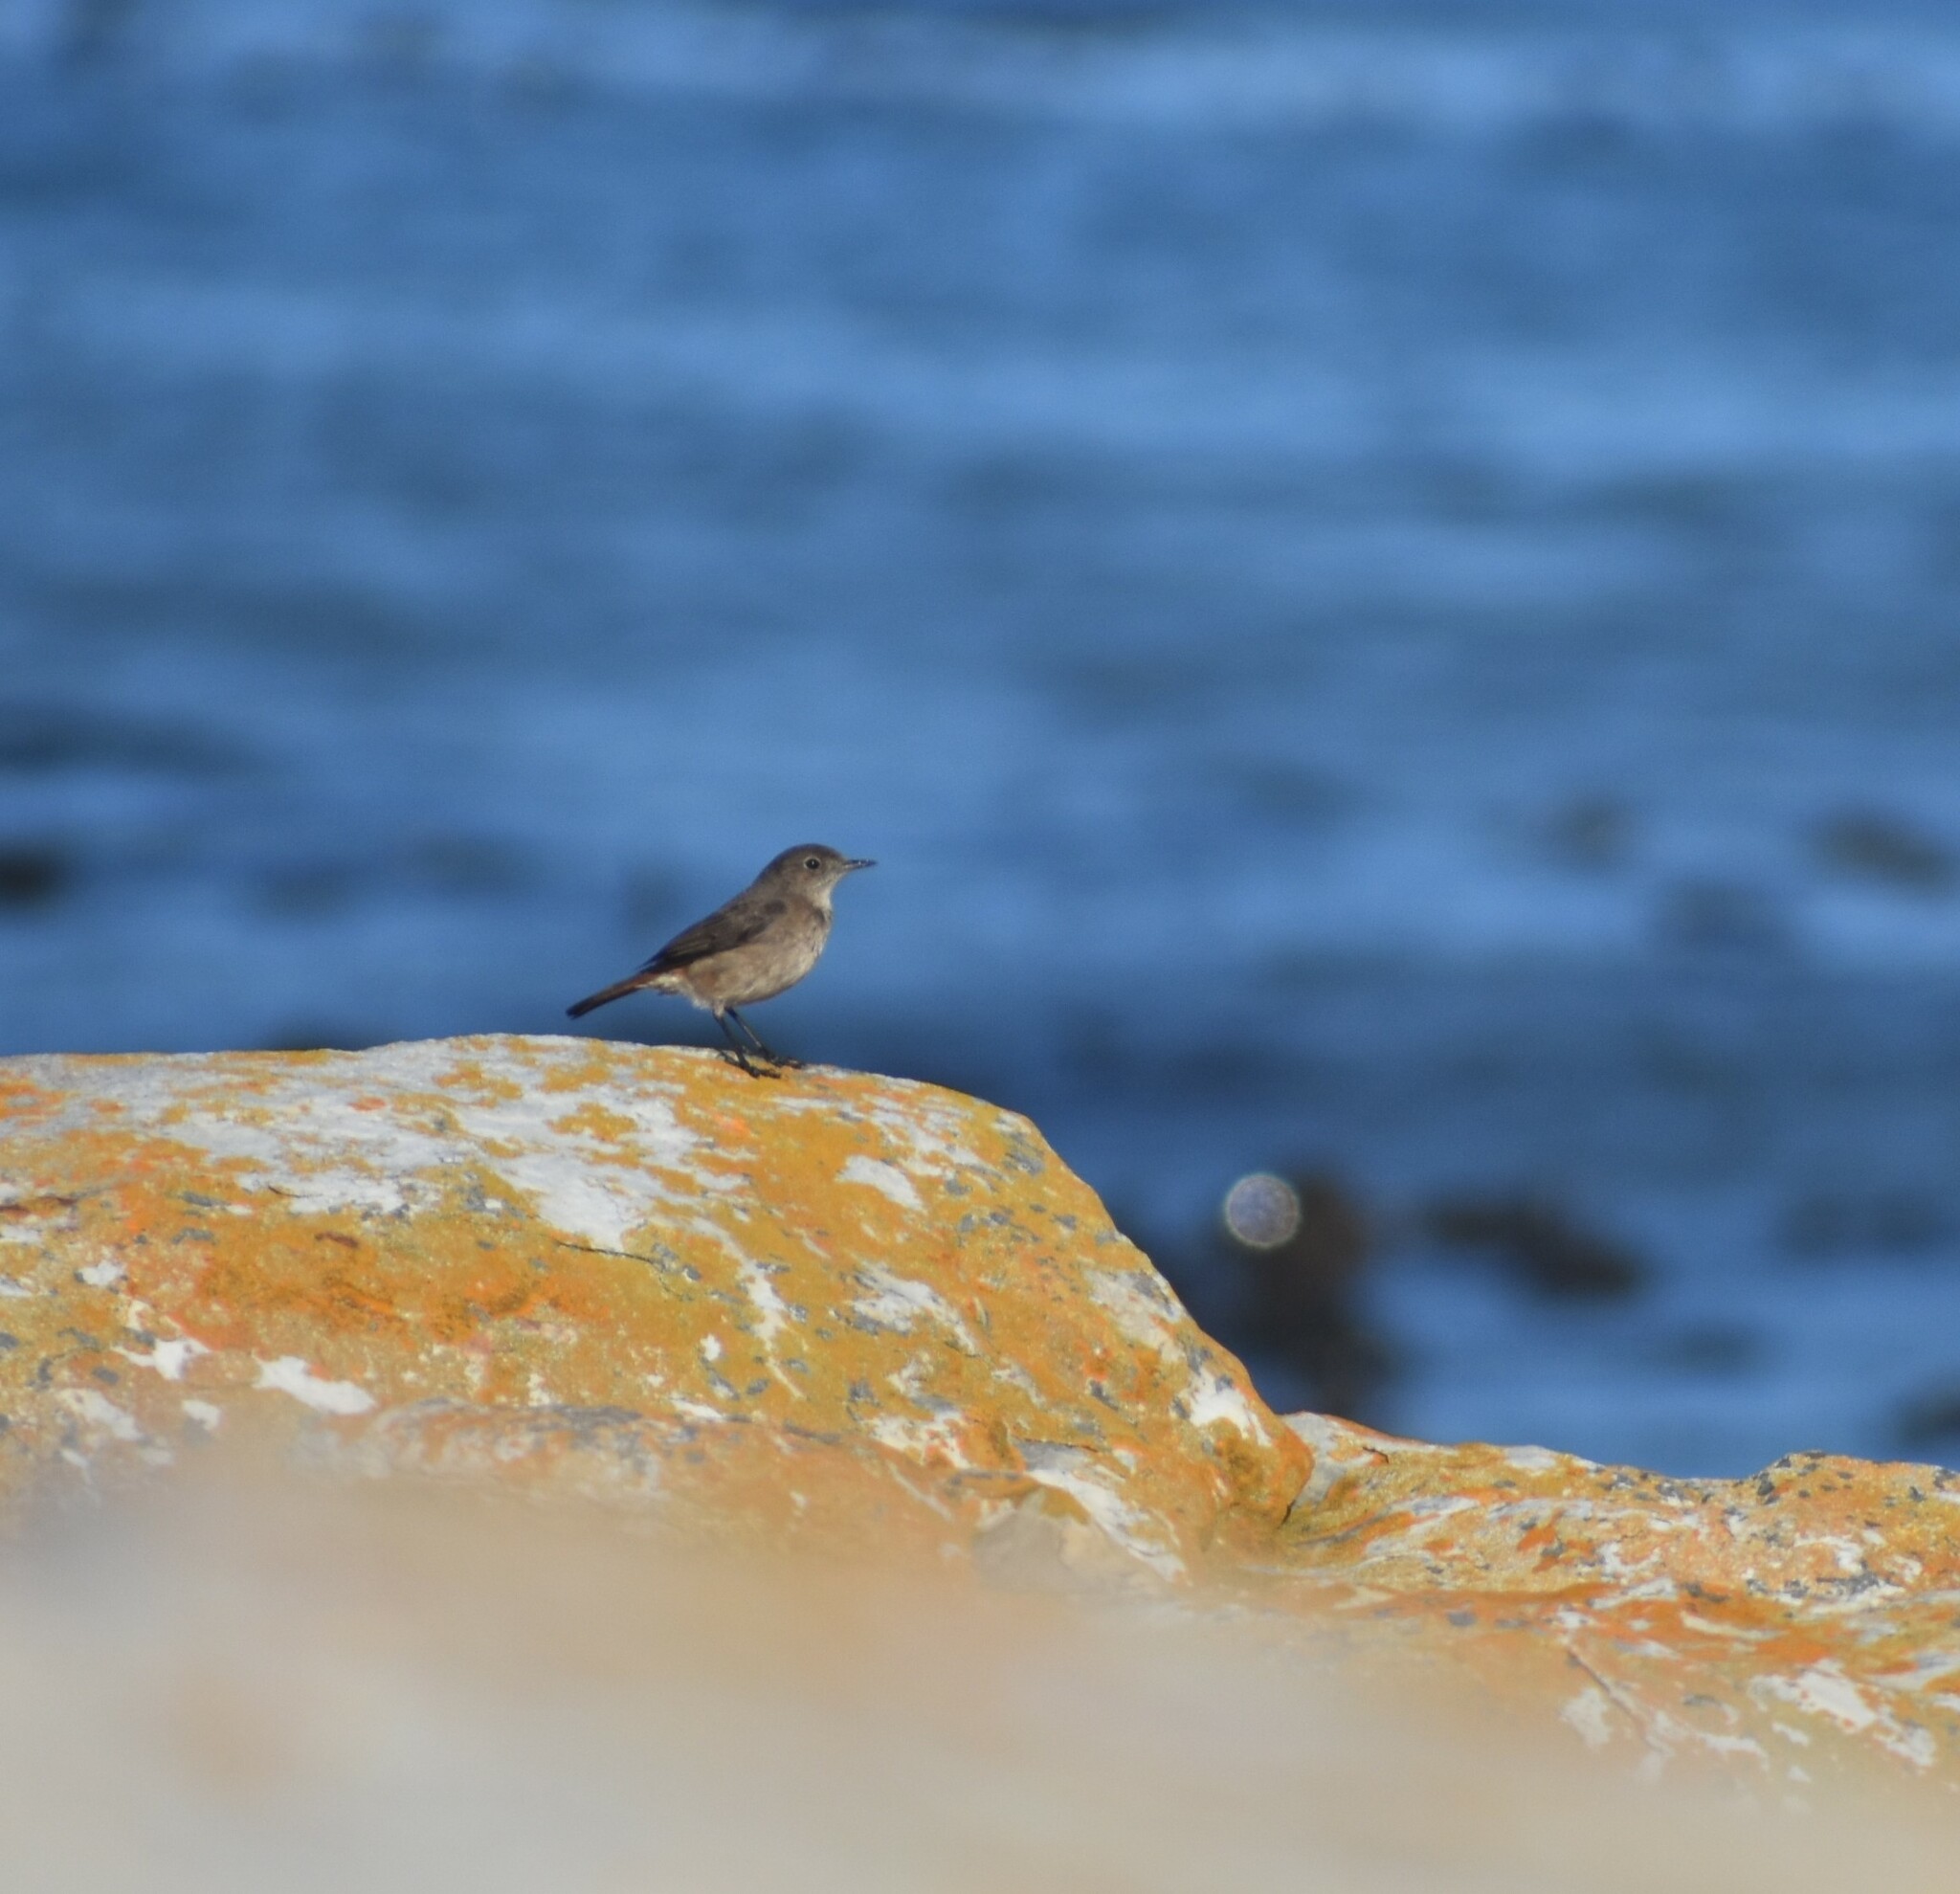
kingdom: Animalia
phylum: Chordata
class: Aves
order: Passeriformes
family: Muscicapidae
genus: Oenanthe
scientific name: Oenanthe familiaris
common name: Familiar chat
